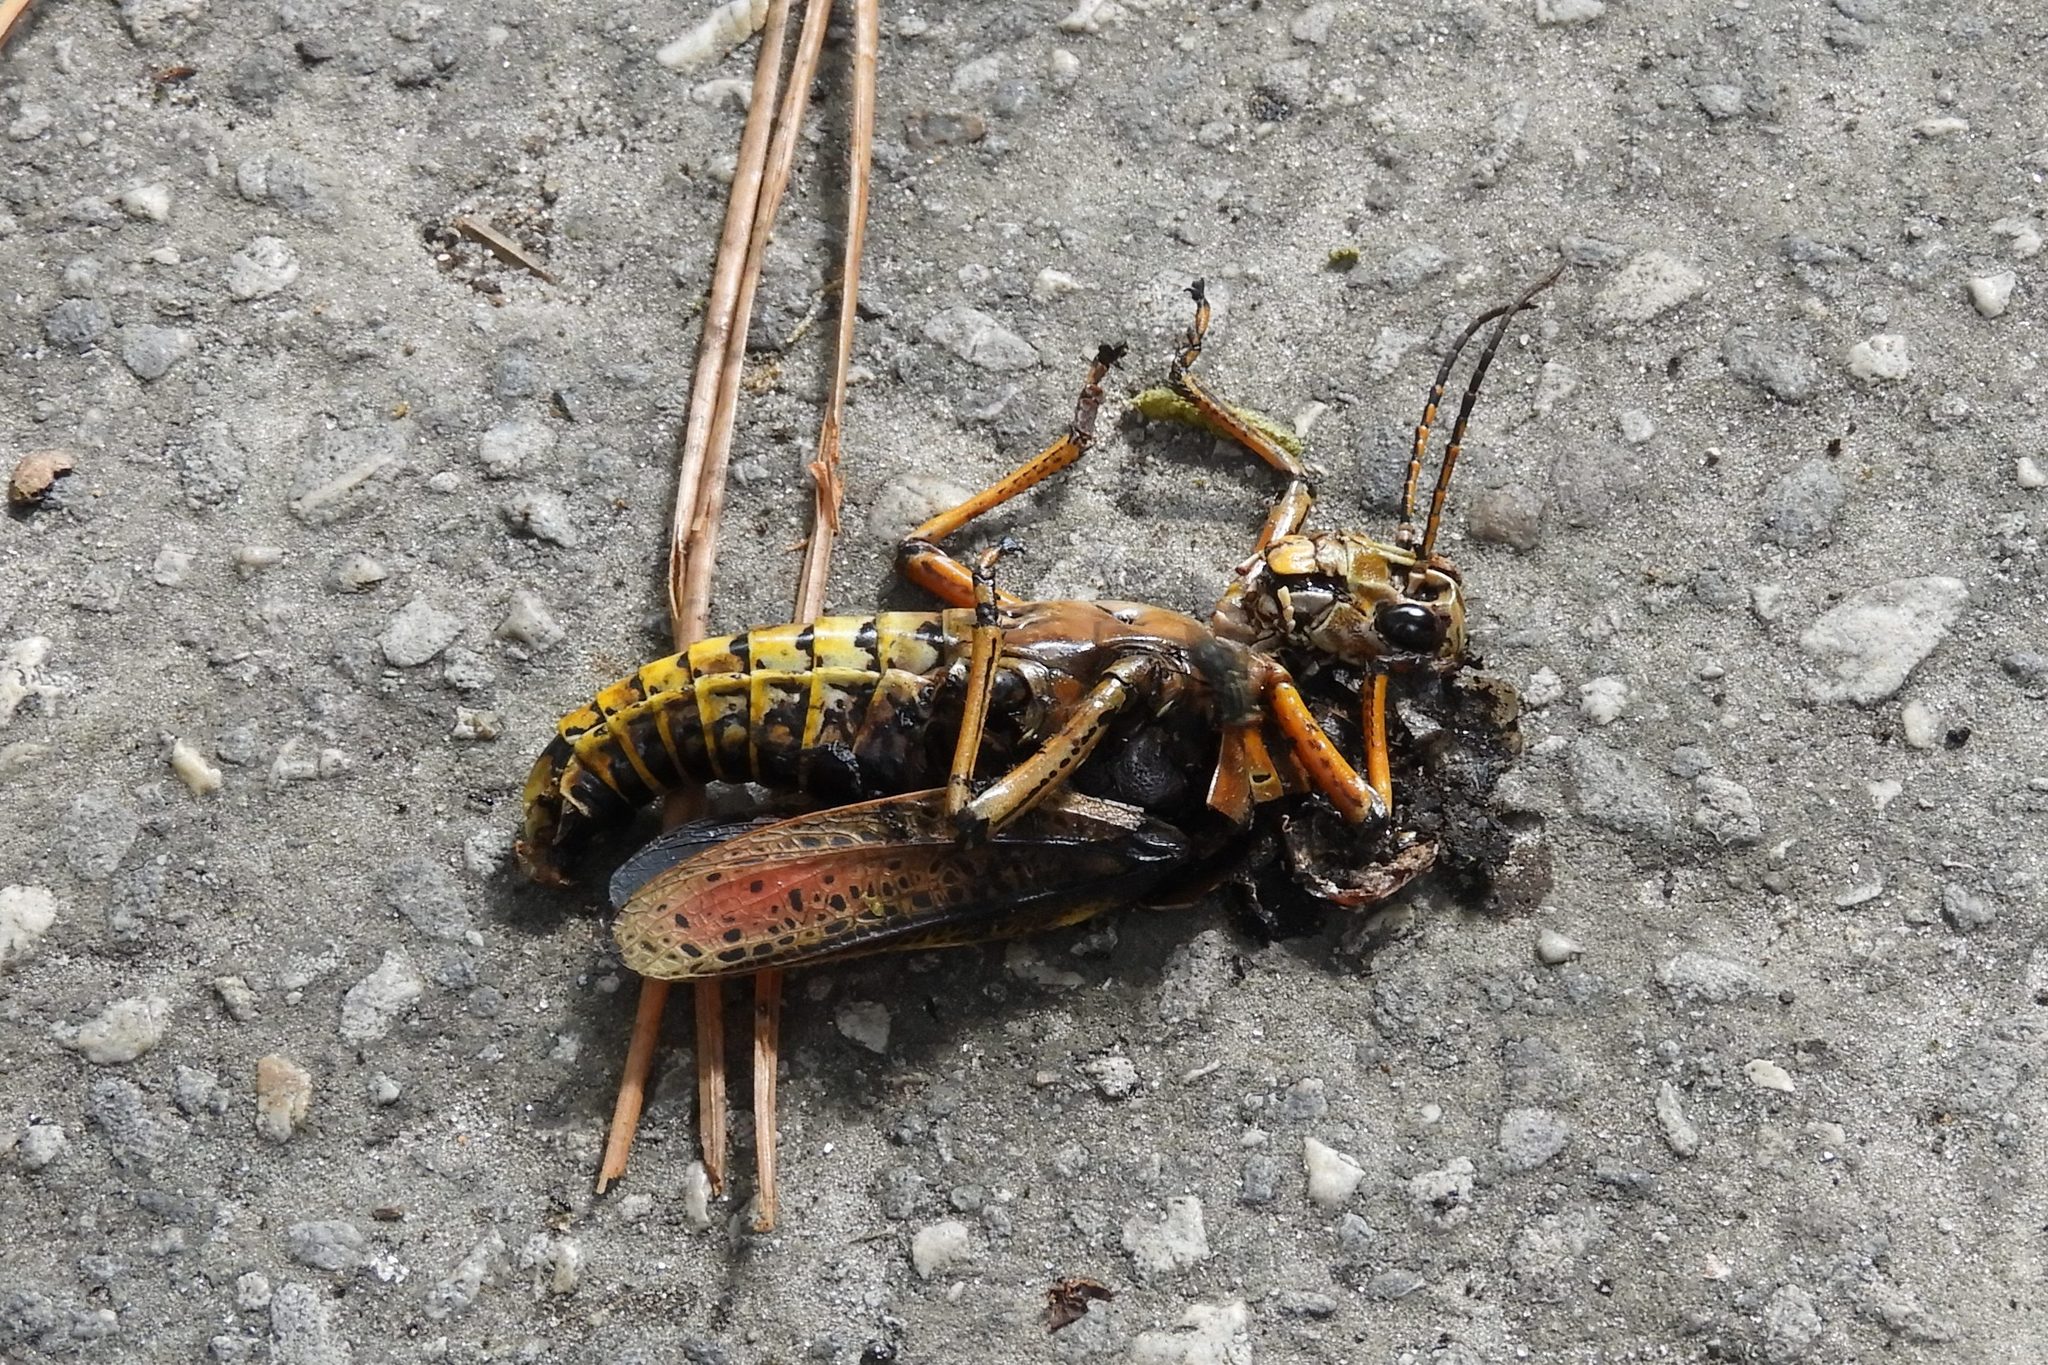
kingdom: Animalia
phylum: Arthropoda
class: Insecta
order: Orthoptera
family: Romaleidae
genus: Romalea
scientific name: Romalea microptera
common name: Eastern lubber grasshopper
